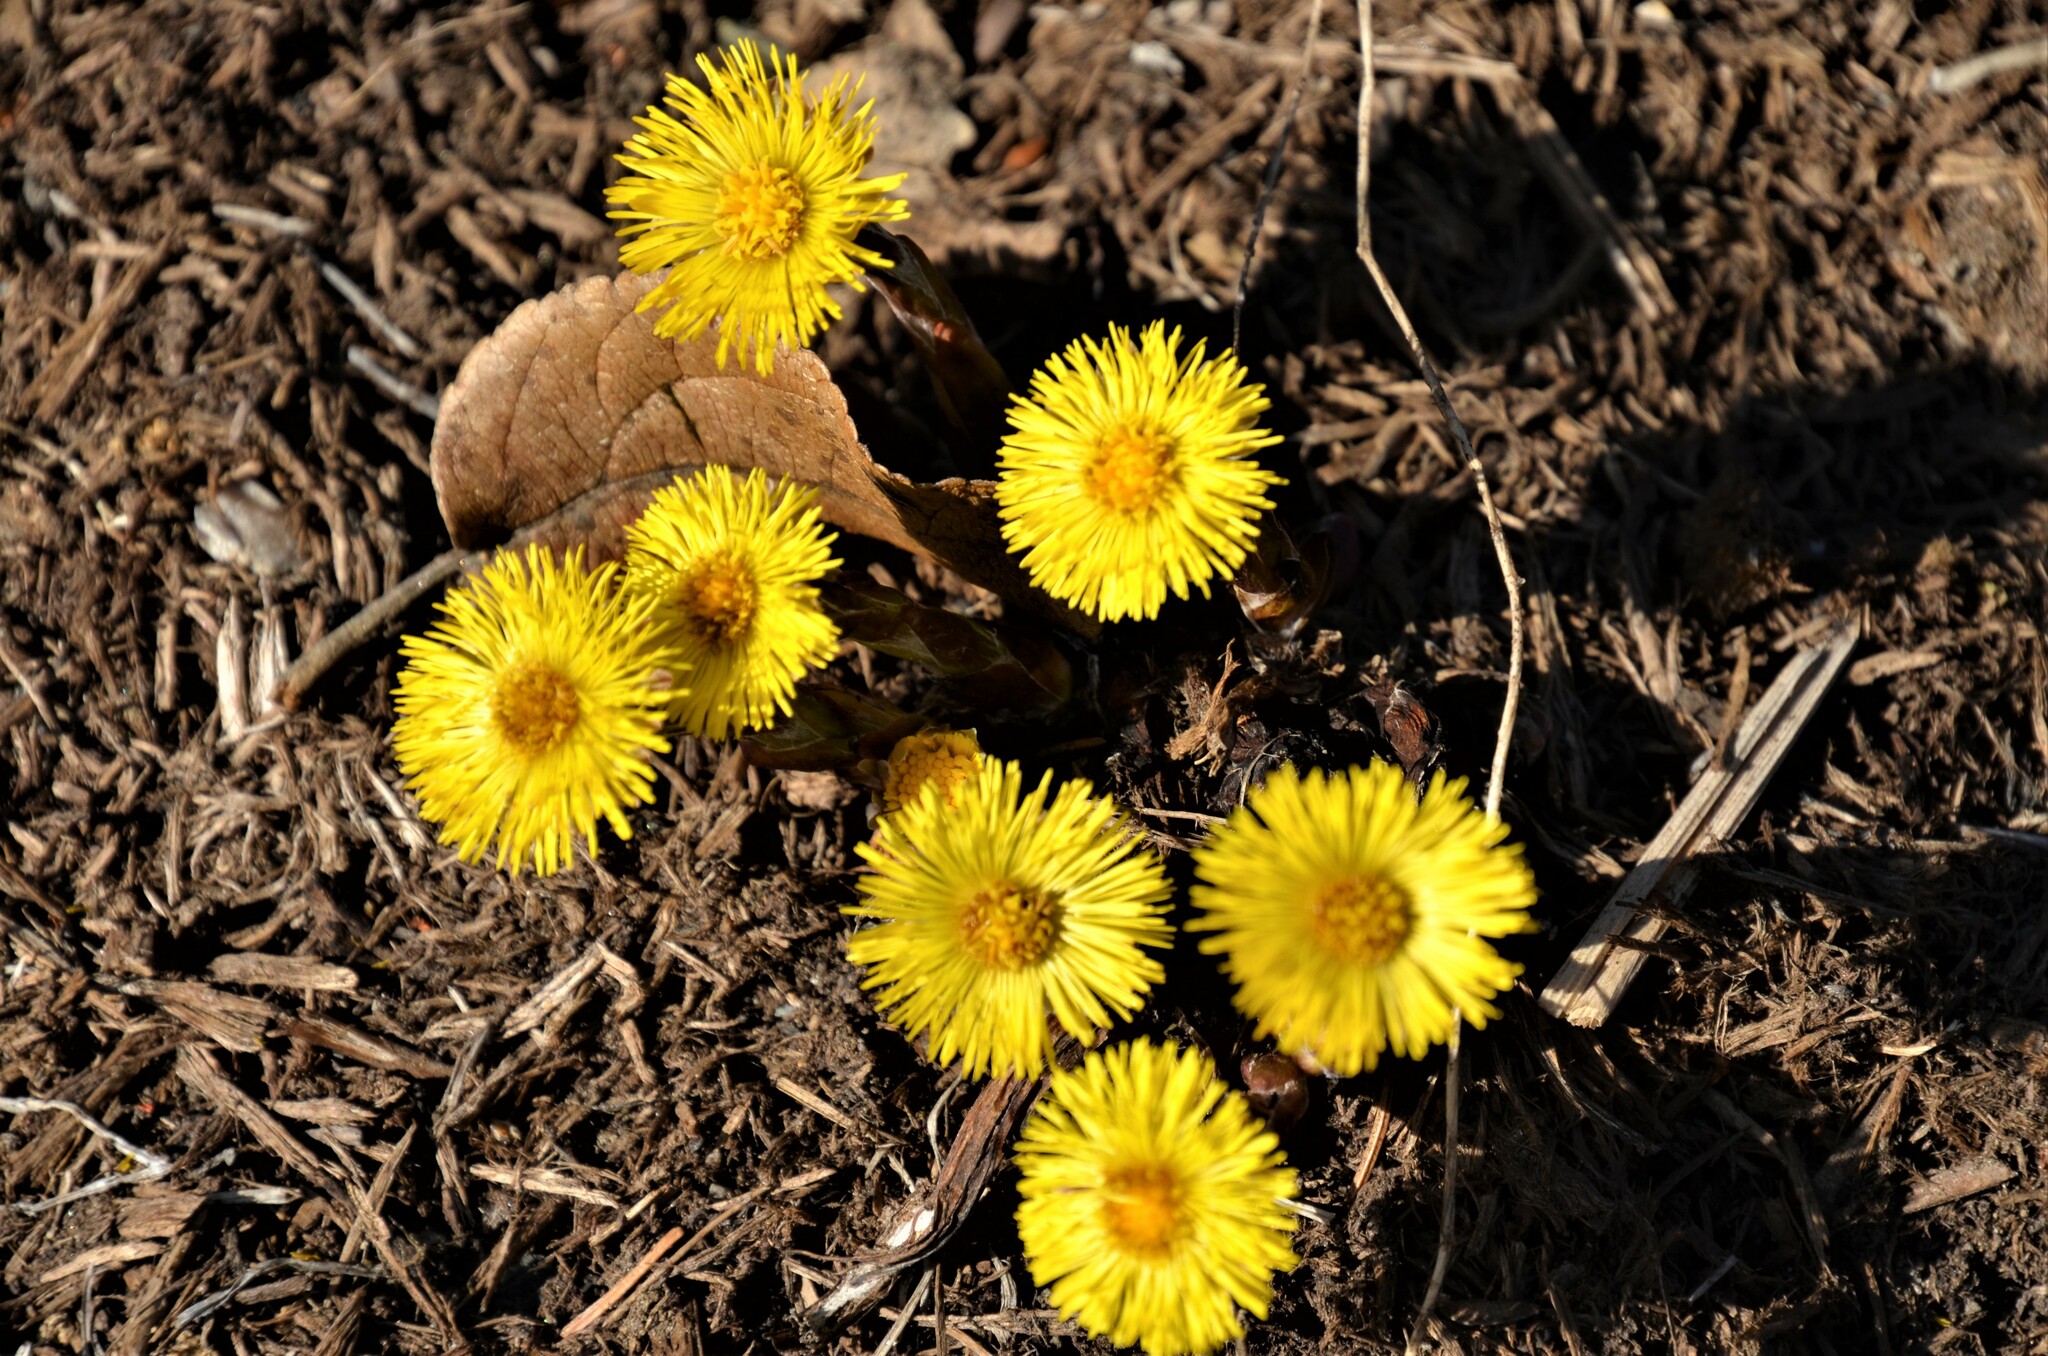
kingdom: Plantae
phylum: Tracheophyta
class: Magnoliopsida
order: Asterales
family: Asteraceae
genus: Tussilago
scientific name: Tussilago farfara
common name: Coltsfoot
